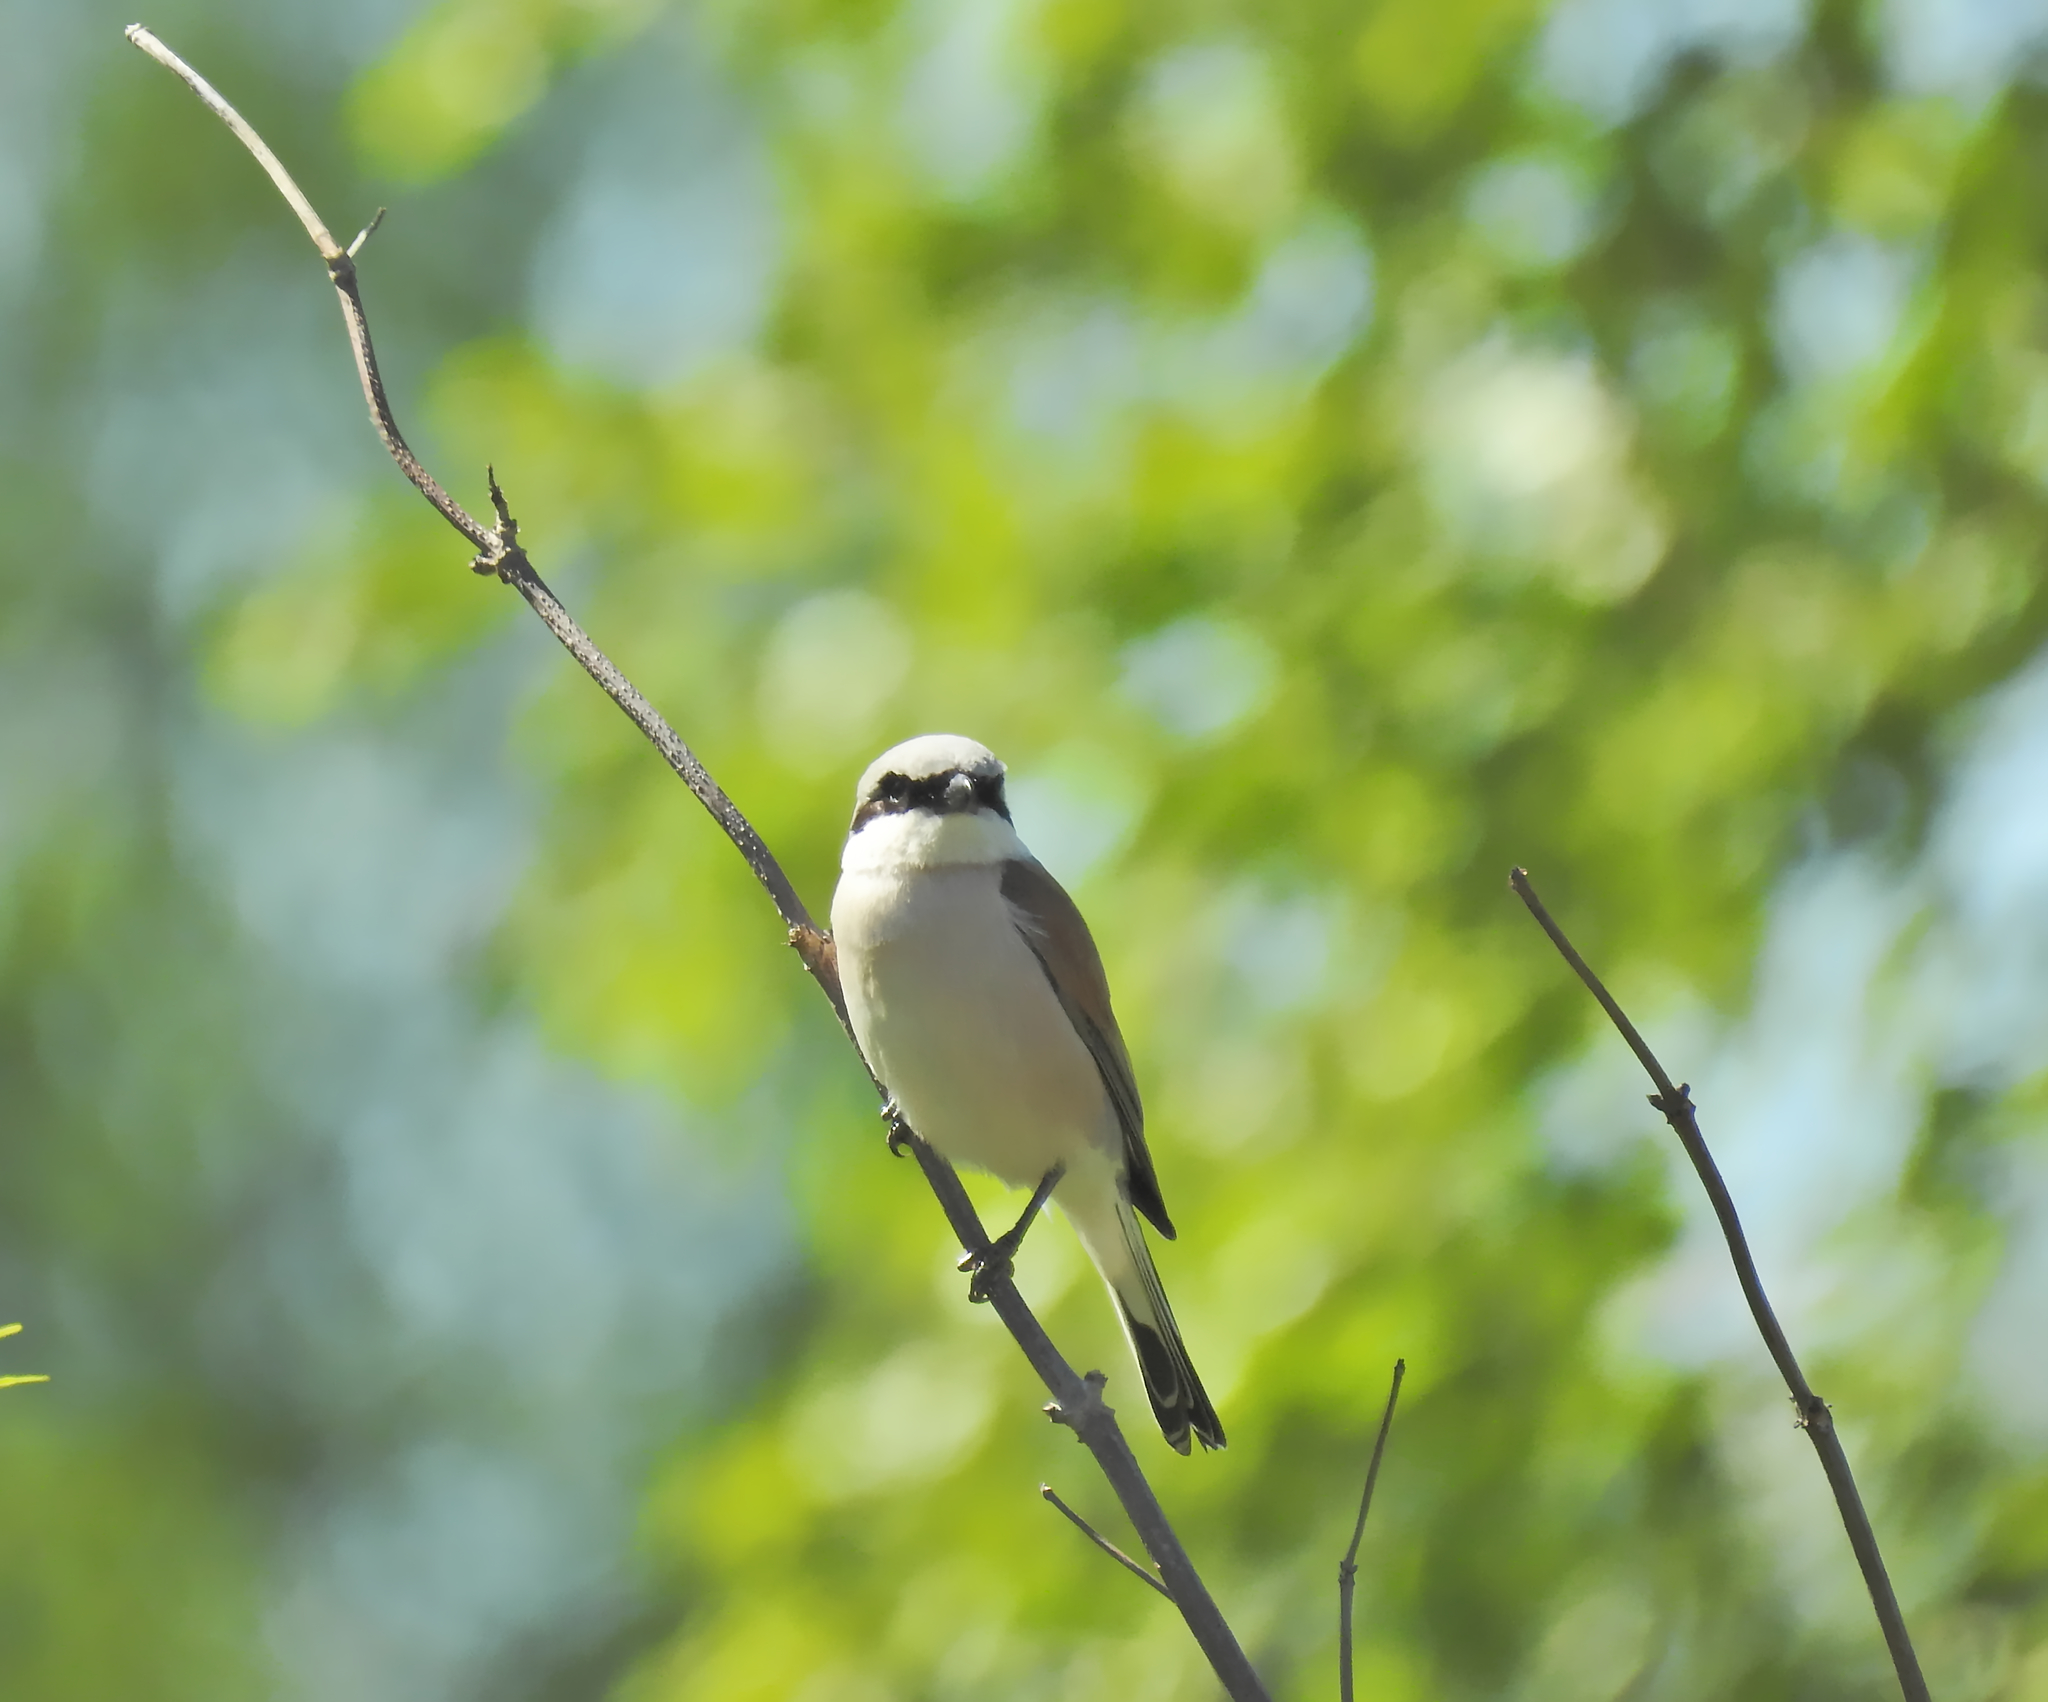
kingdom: Animalia
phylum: Chordata
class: Aves
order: Passeriformes
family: Laniidae
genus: Lanius
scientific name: Lanius collurio
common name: Red-backed shrike
